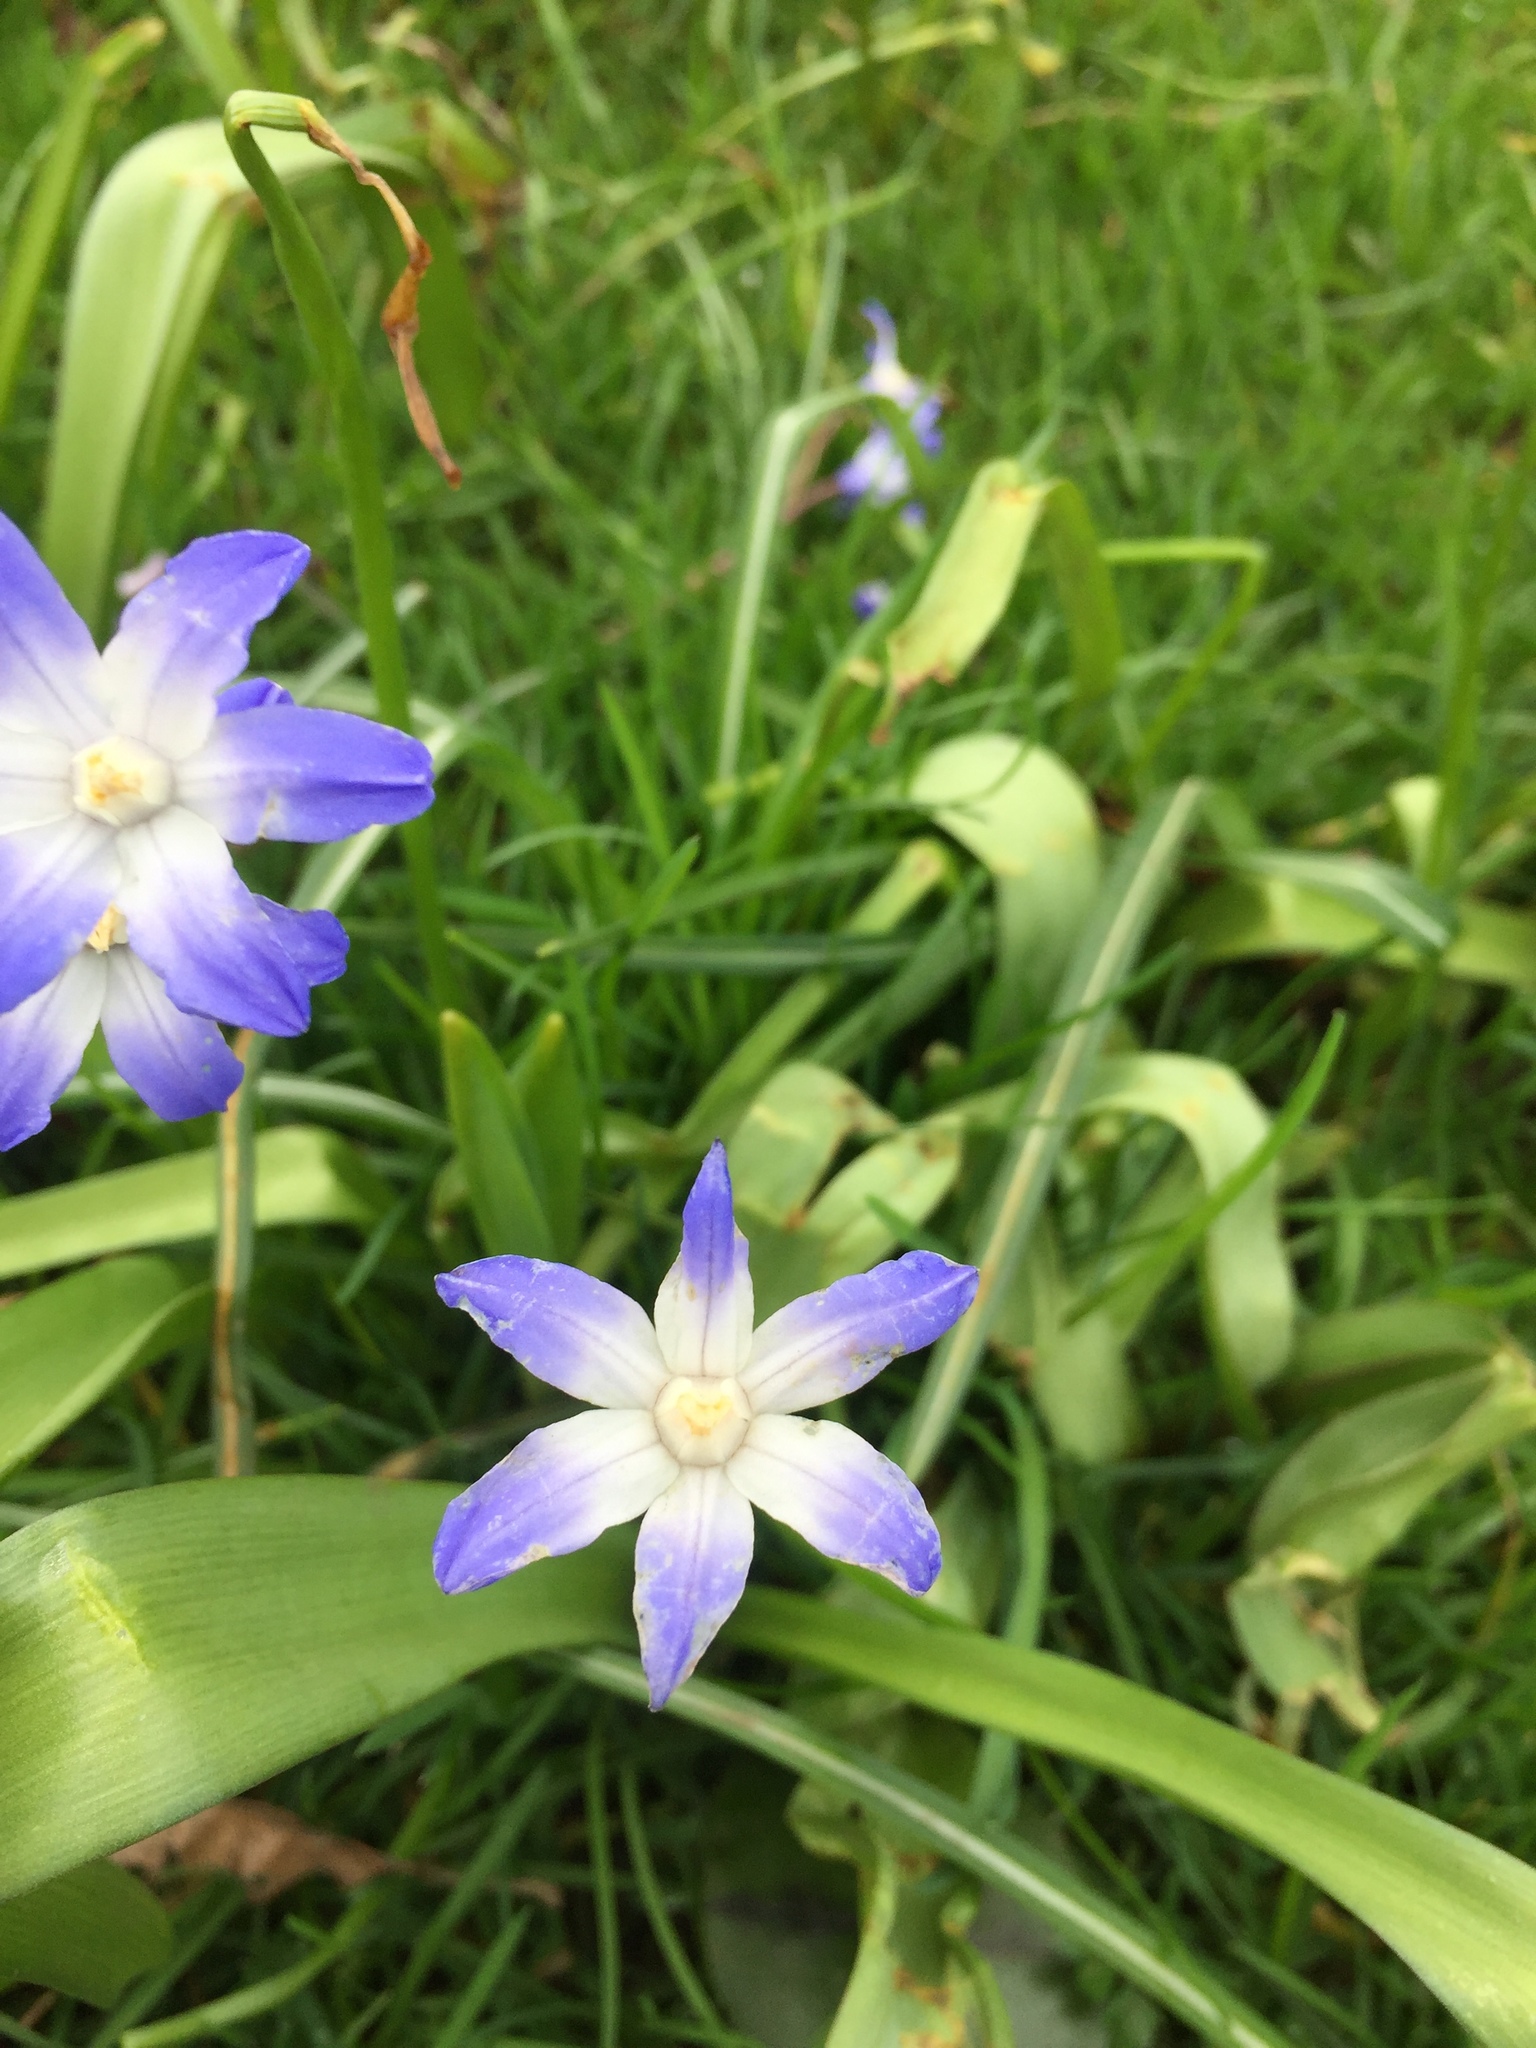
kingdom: Plantae
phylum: Tracheophyta
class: Liliopsida
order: Asparagales
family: Asparagaceae
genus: Scilla
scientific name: Scilla forbesii
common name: Glory-of-the-snow
